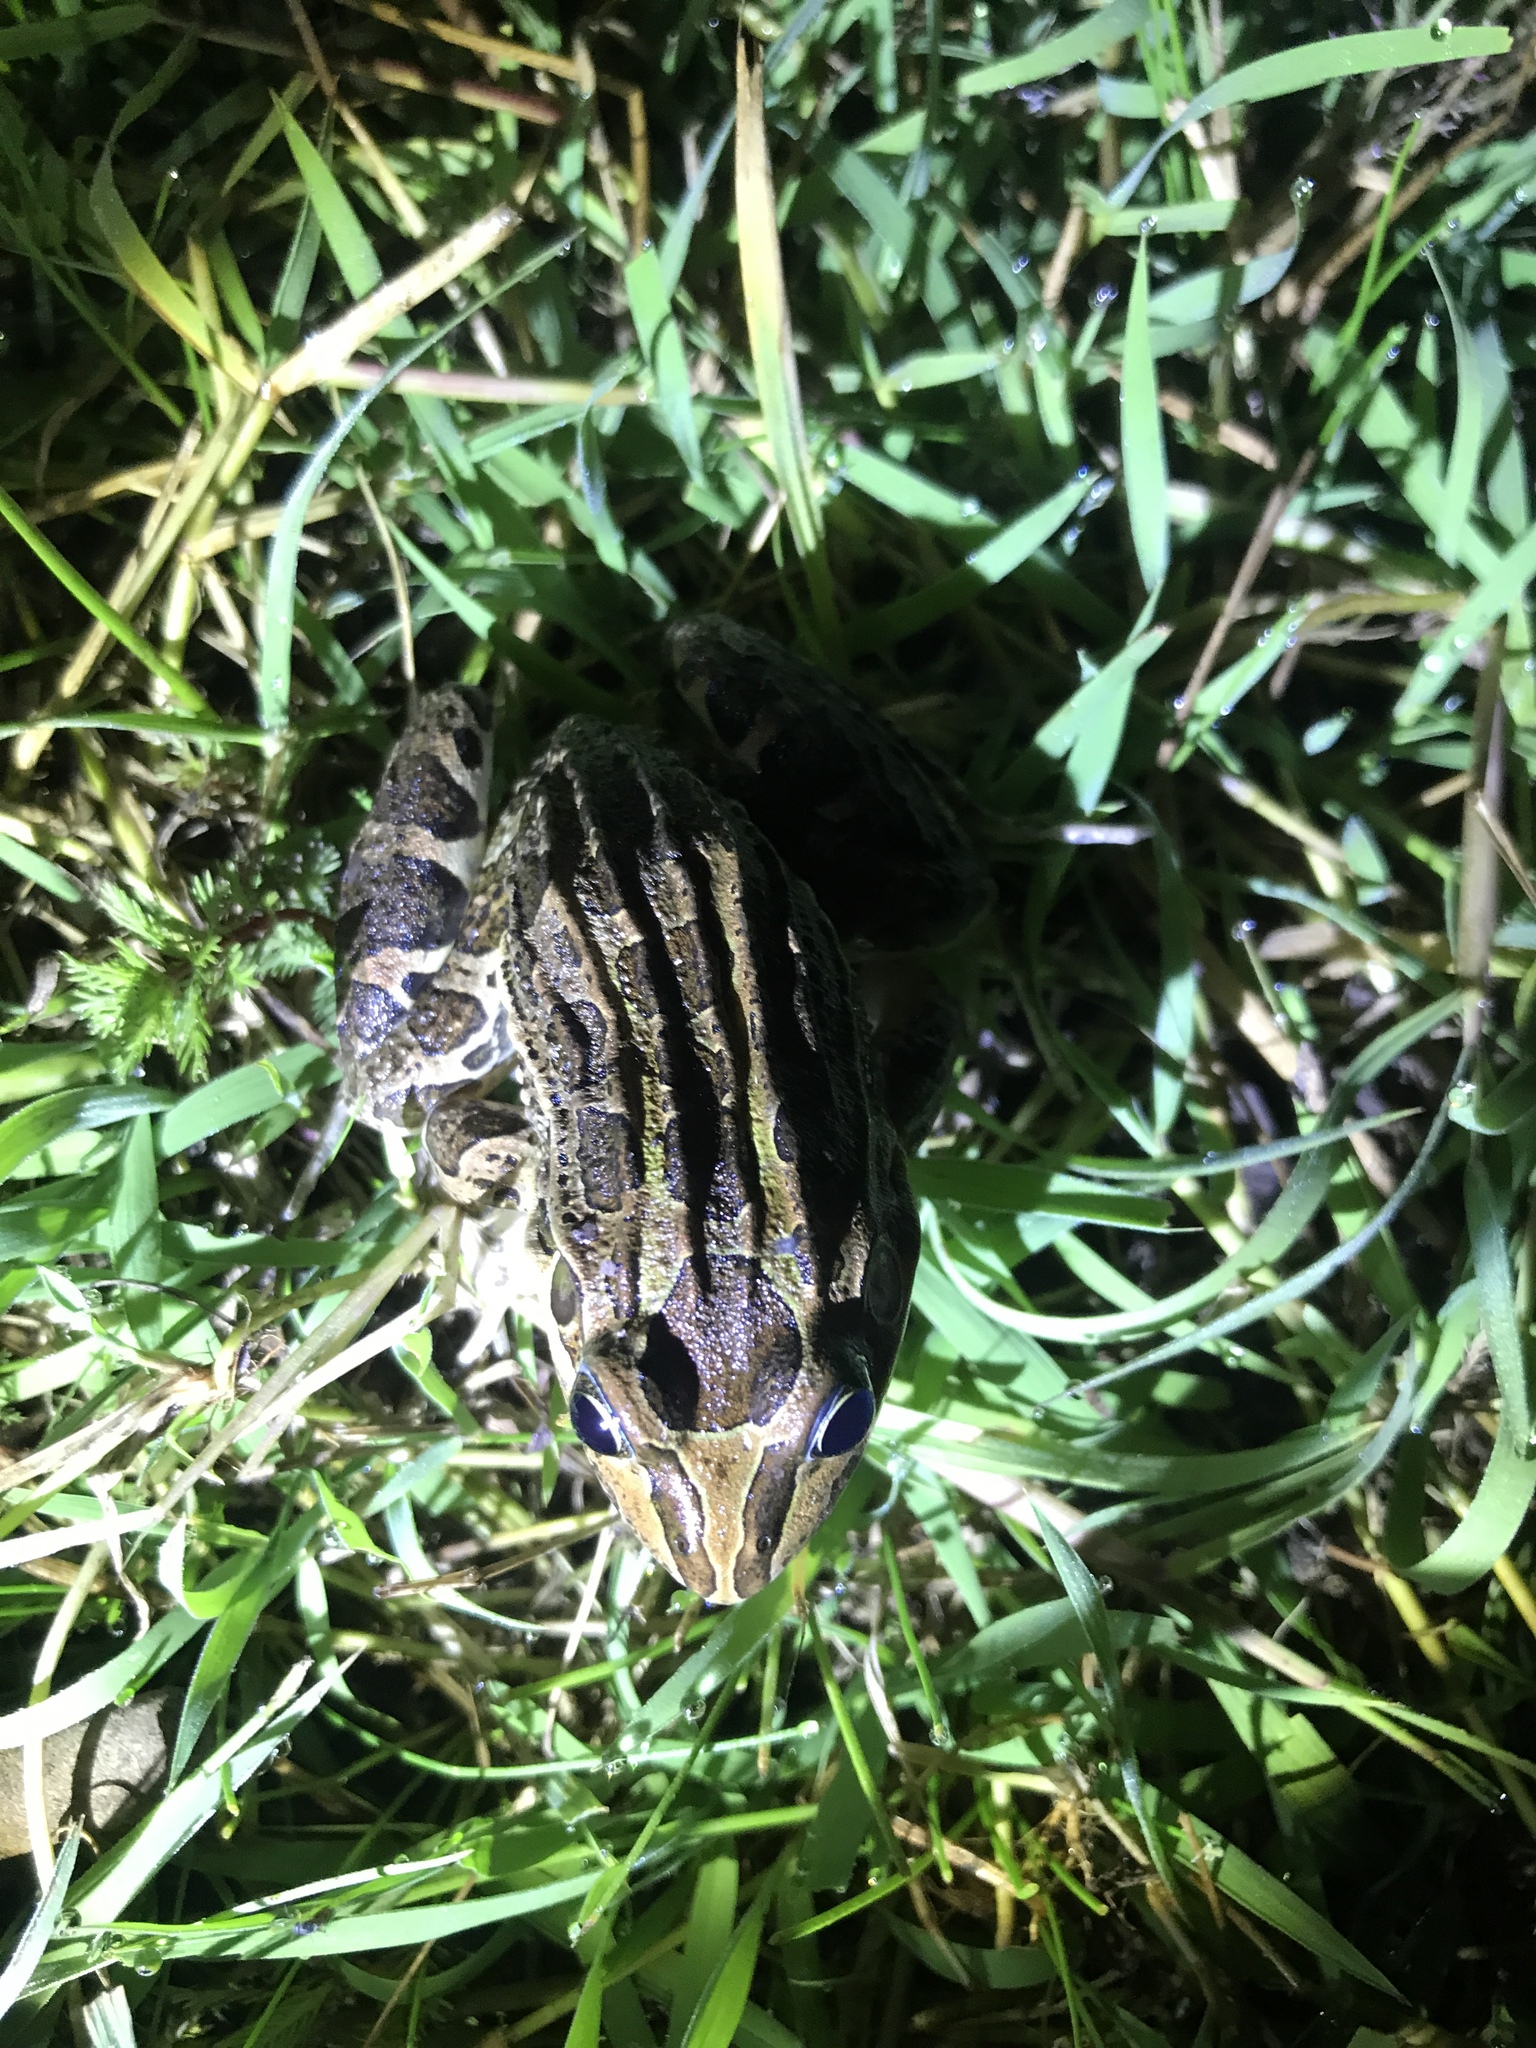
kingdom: Animalia
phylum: Chordata
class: Amphibia
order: Anura
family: Leptodactylidae
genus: Leptodactylus
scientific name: Leptodactylus luctator
